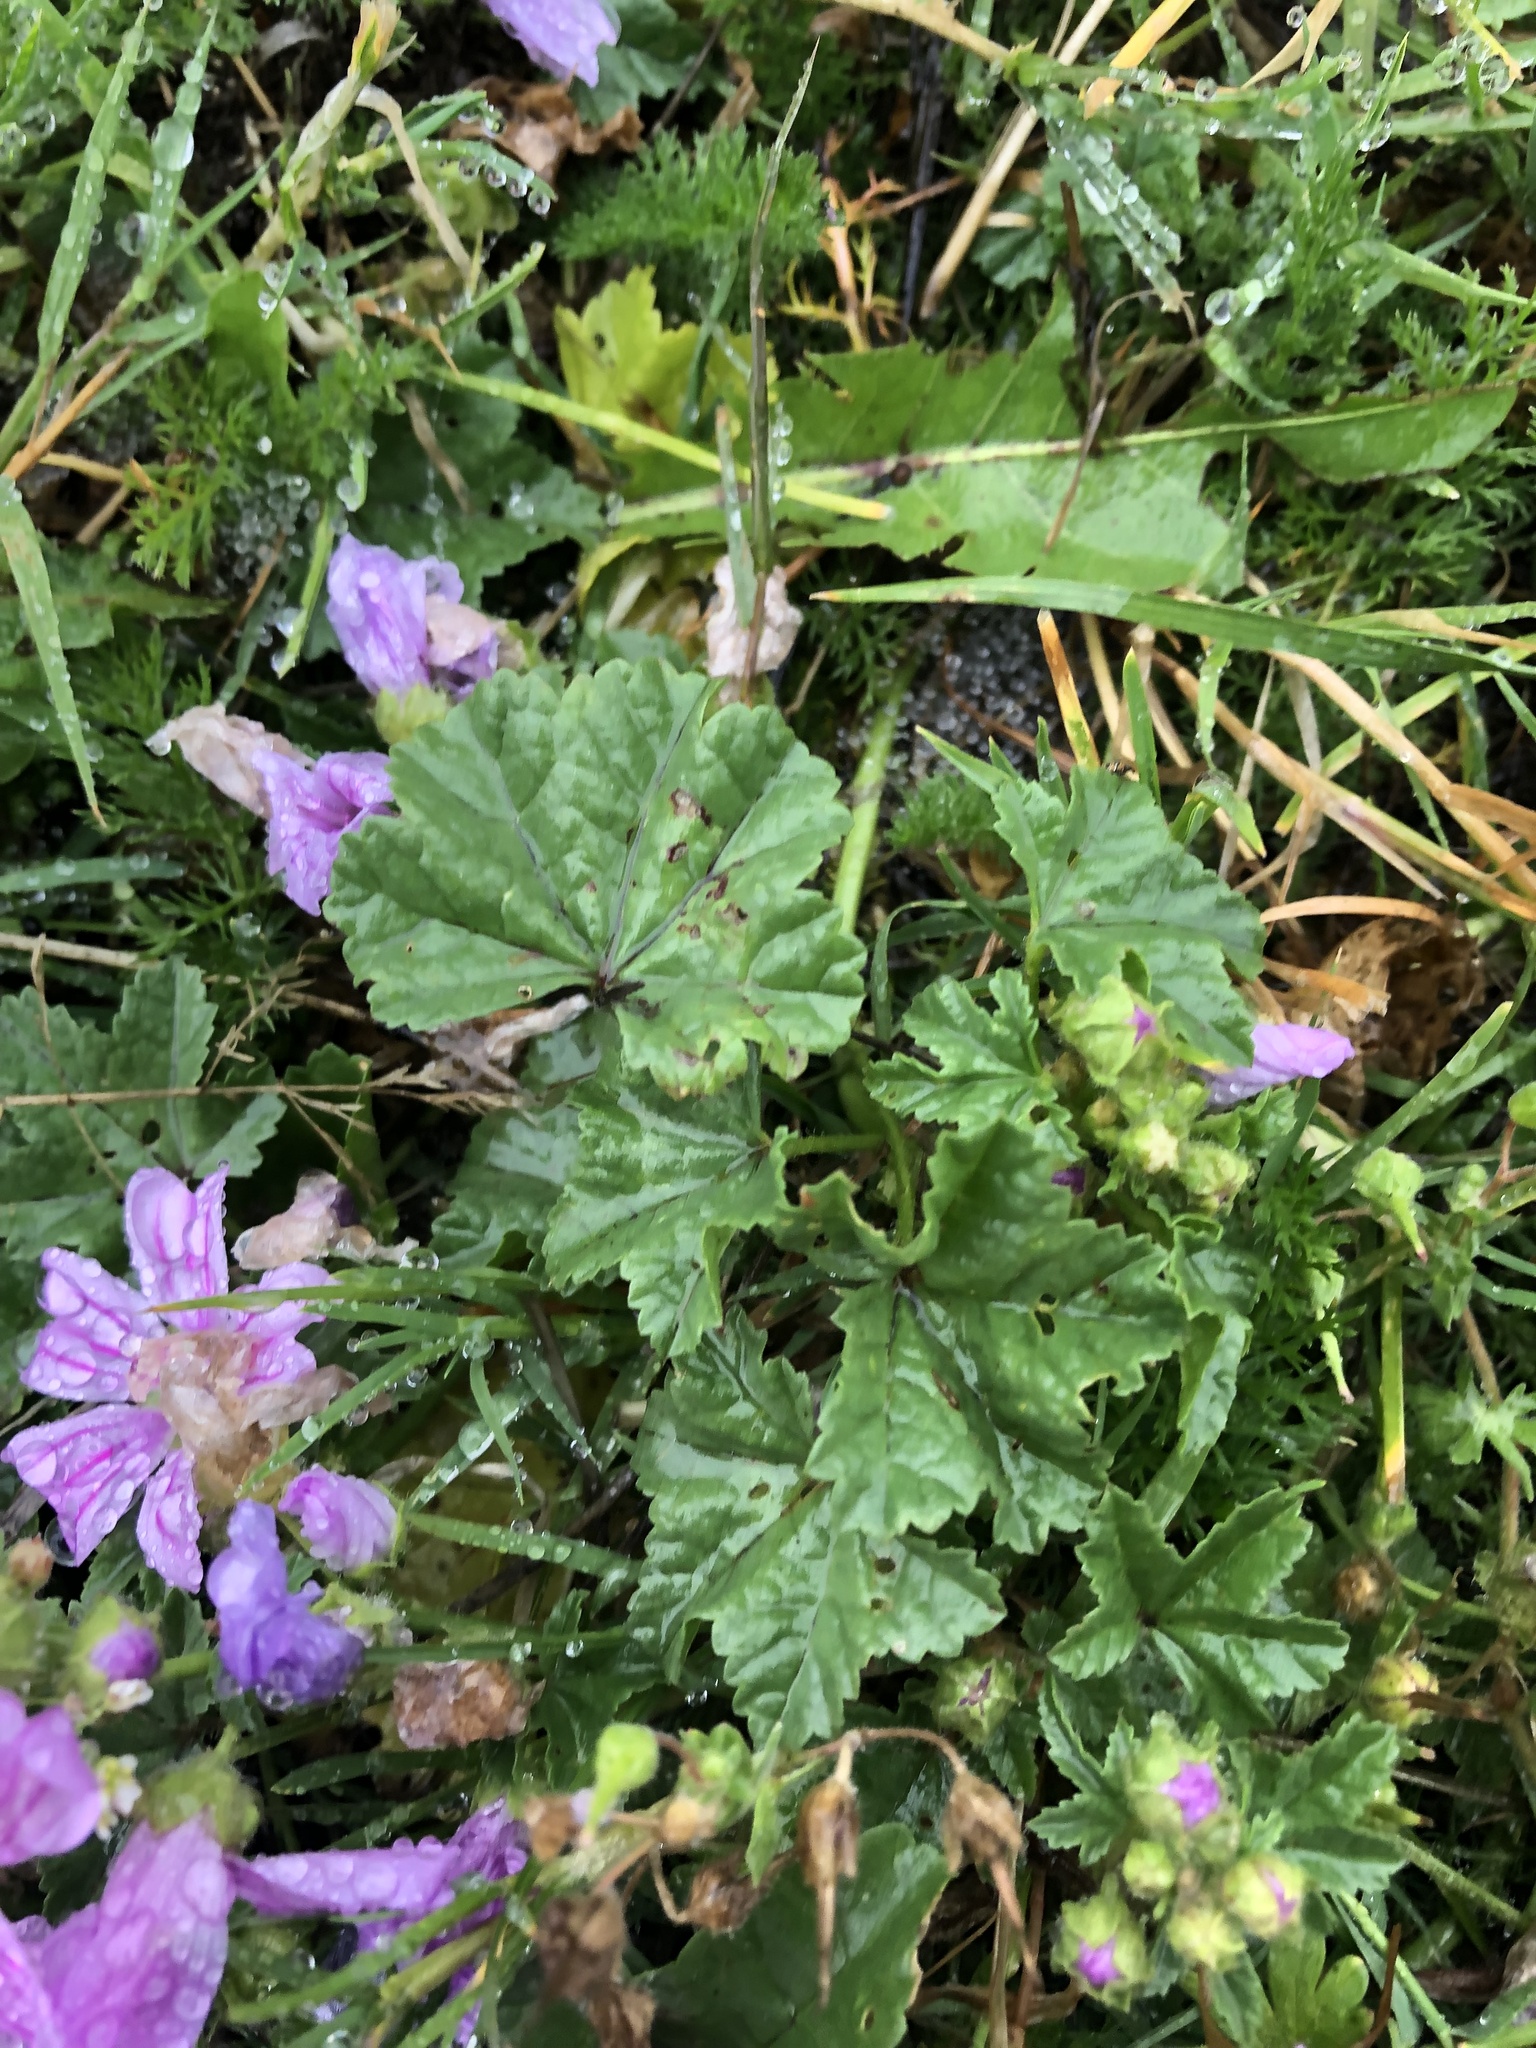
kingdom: Plantae
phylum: Tracheophyta
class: Magnoliopsida
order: Malvales
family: Malvaceae
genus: Malva
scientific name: Malva sylvestris
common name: Common mallow
